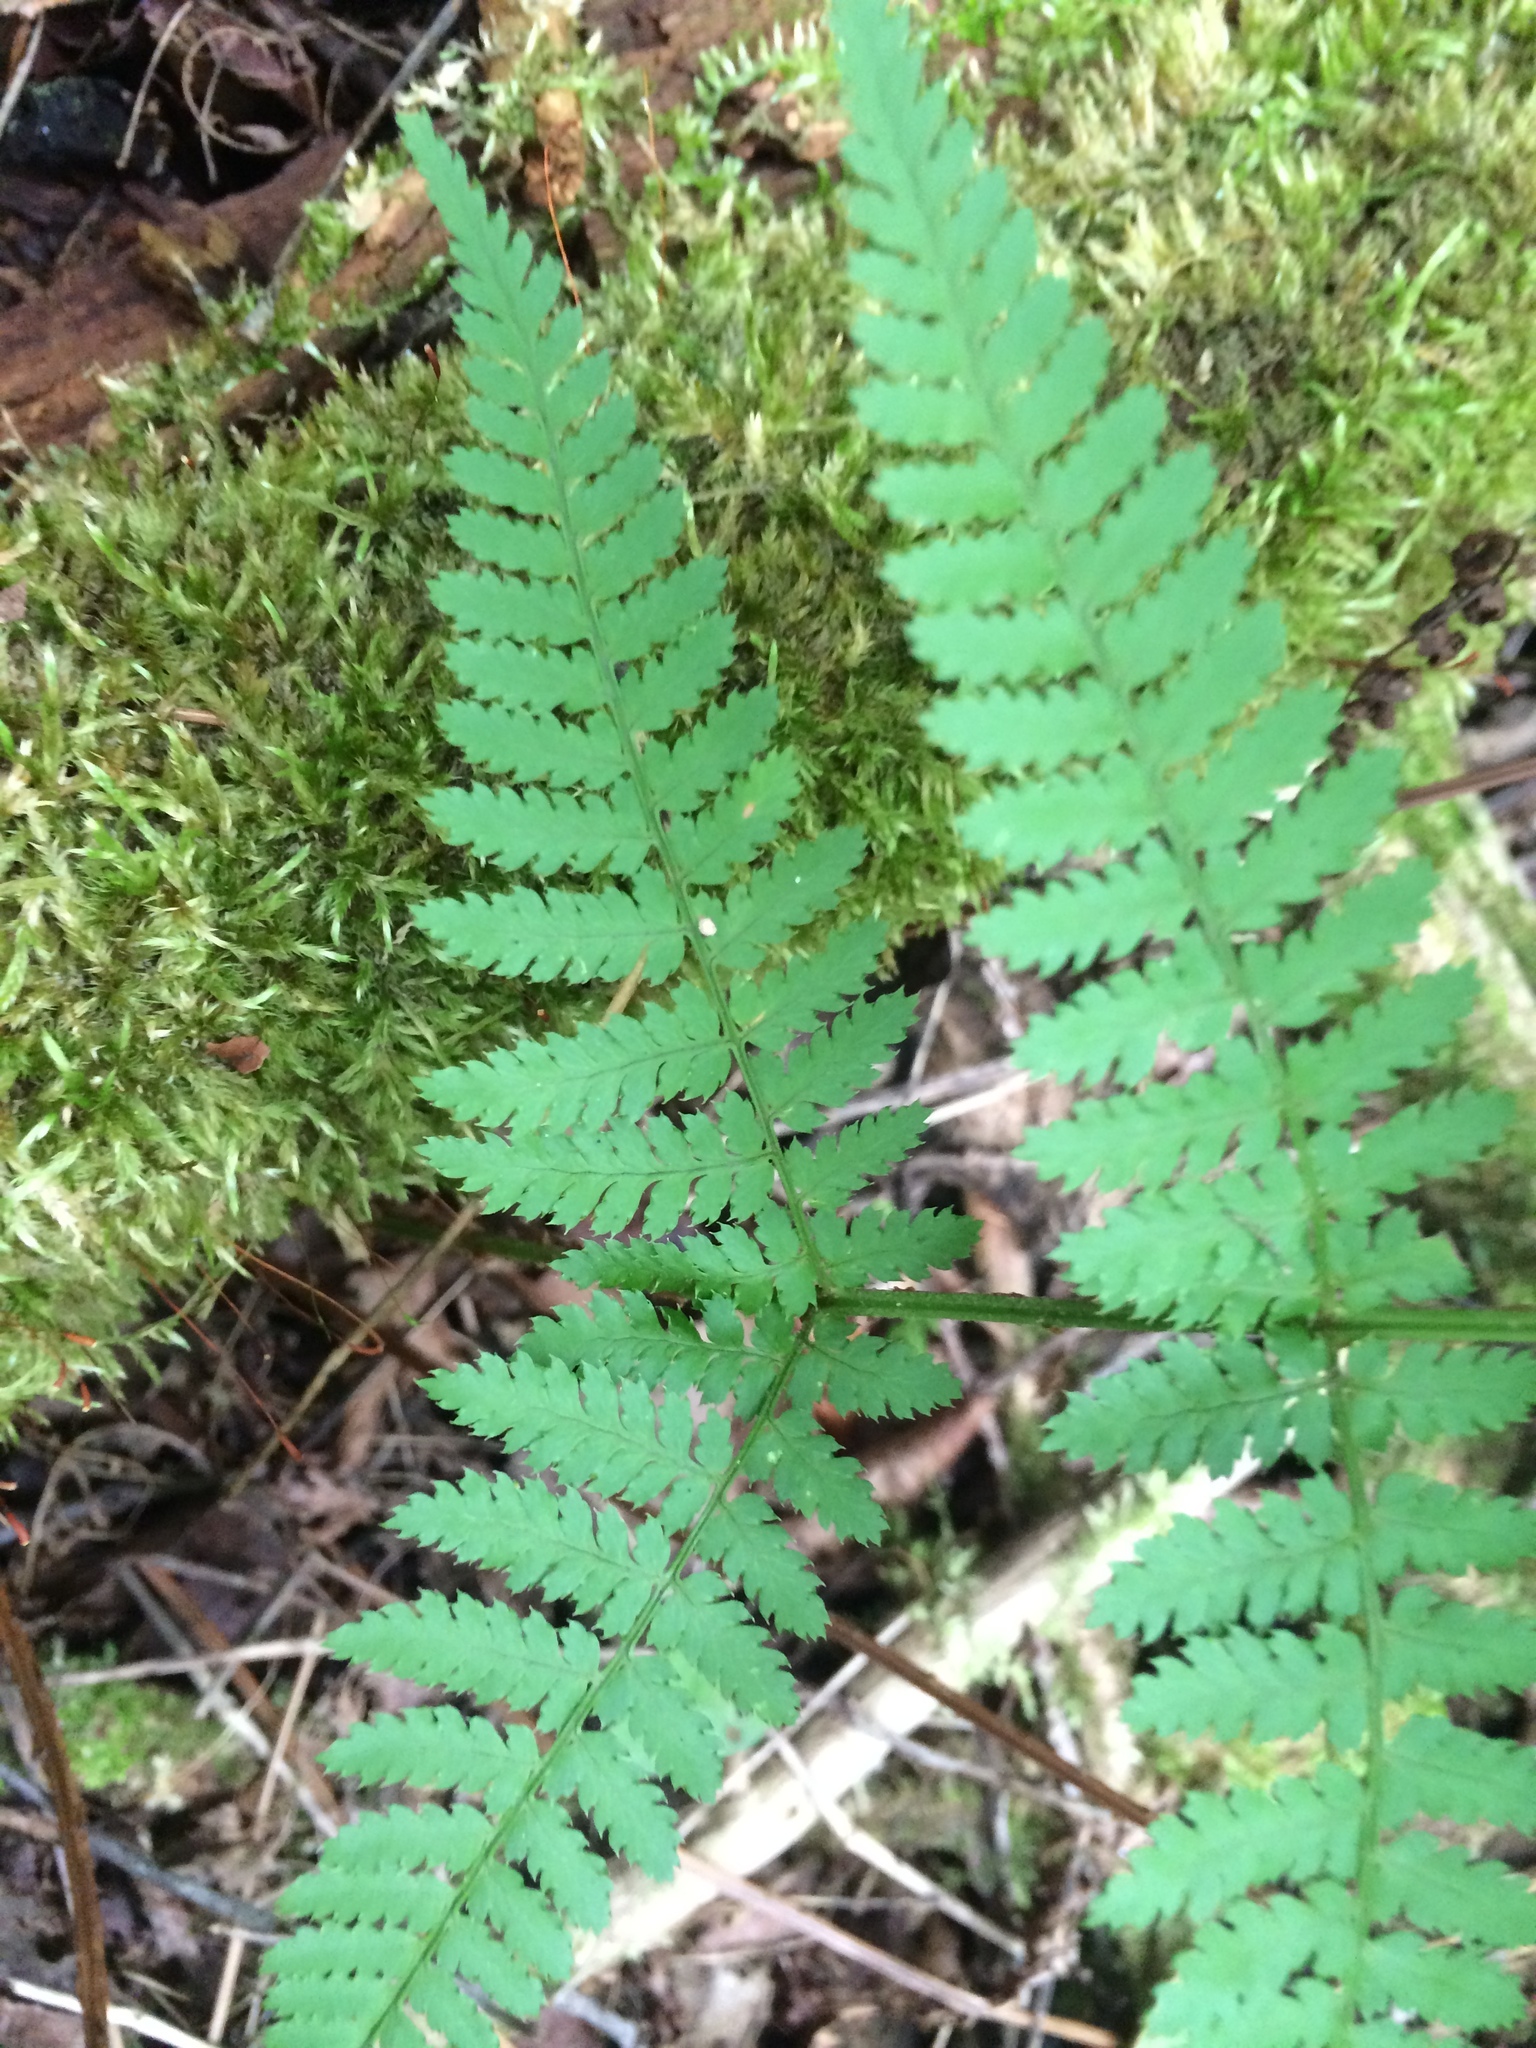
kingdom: Plantae
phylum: Tracheophyta
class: Polypodiopsida
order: Polypodiales
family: Dryopteridaceae
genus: Dryopteris
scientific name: Dryopteris intermedia
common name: Evergreen wood fern
